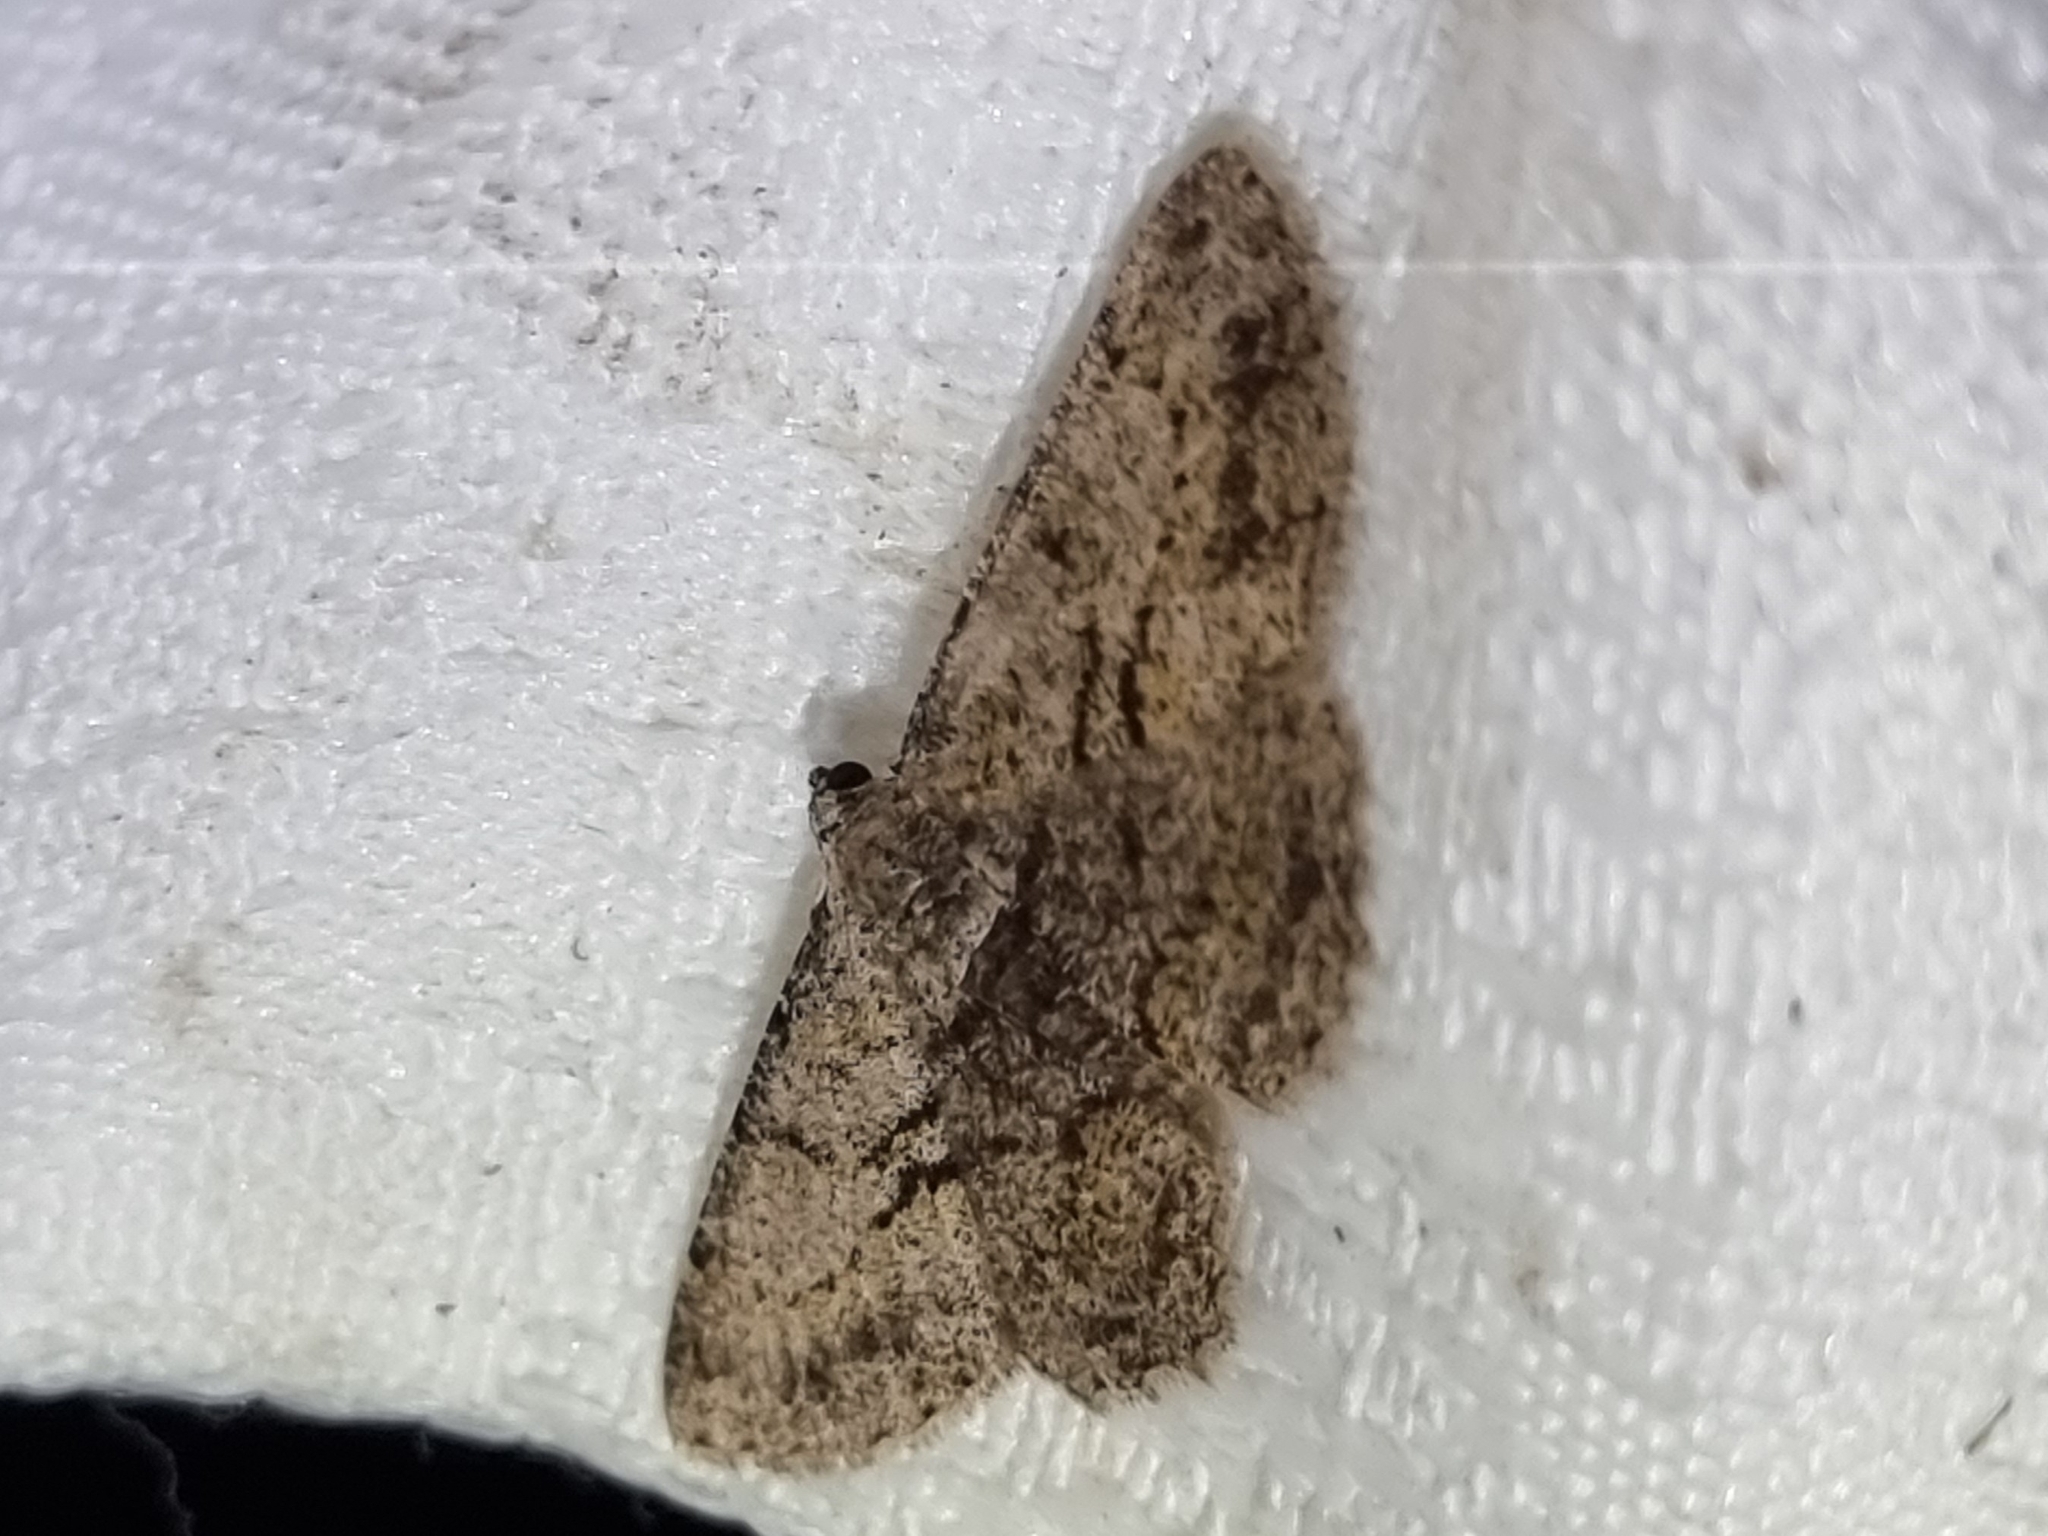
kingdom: Animalia
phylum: Arthropoda
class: Insecta
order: Lepidoptera
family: Geometridae
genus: Psilalcis
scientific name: Psilalcis isombra
